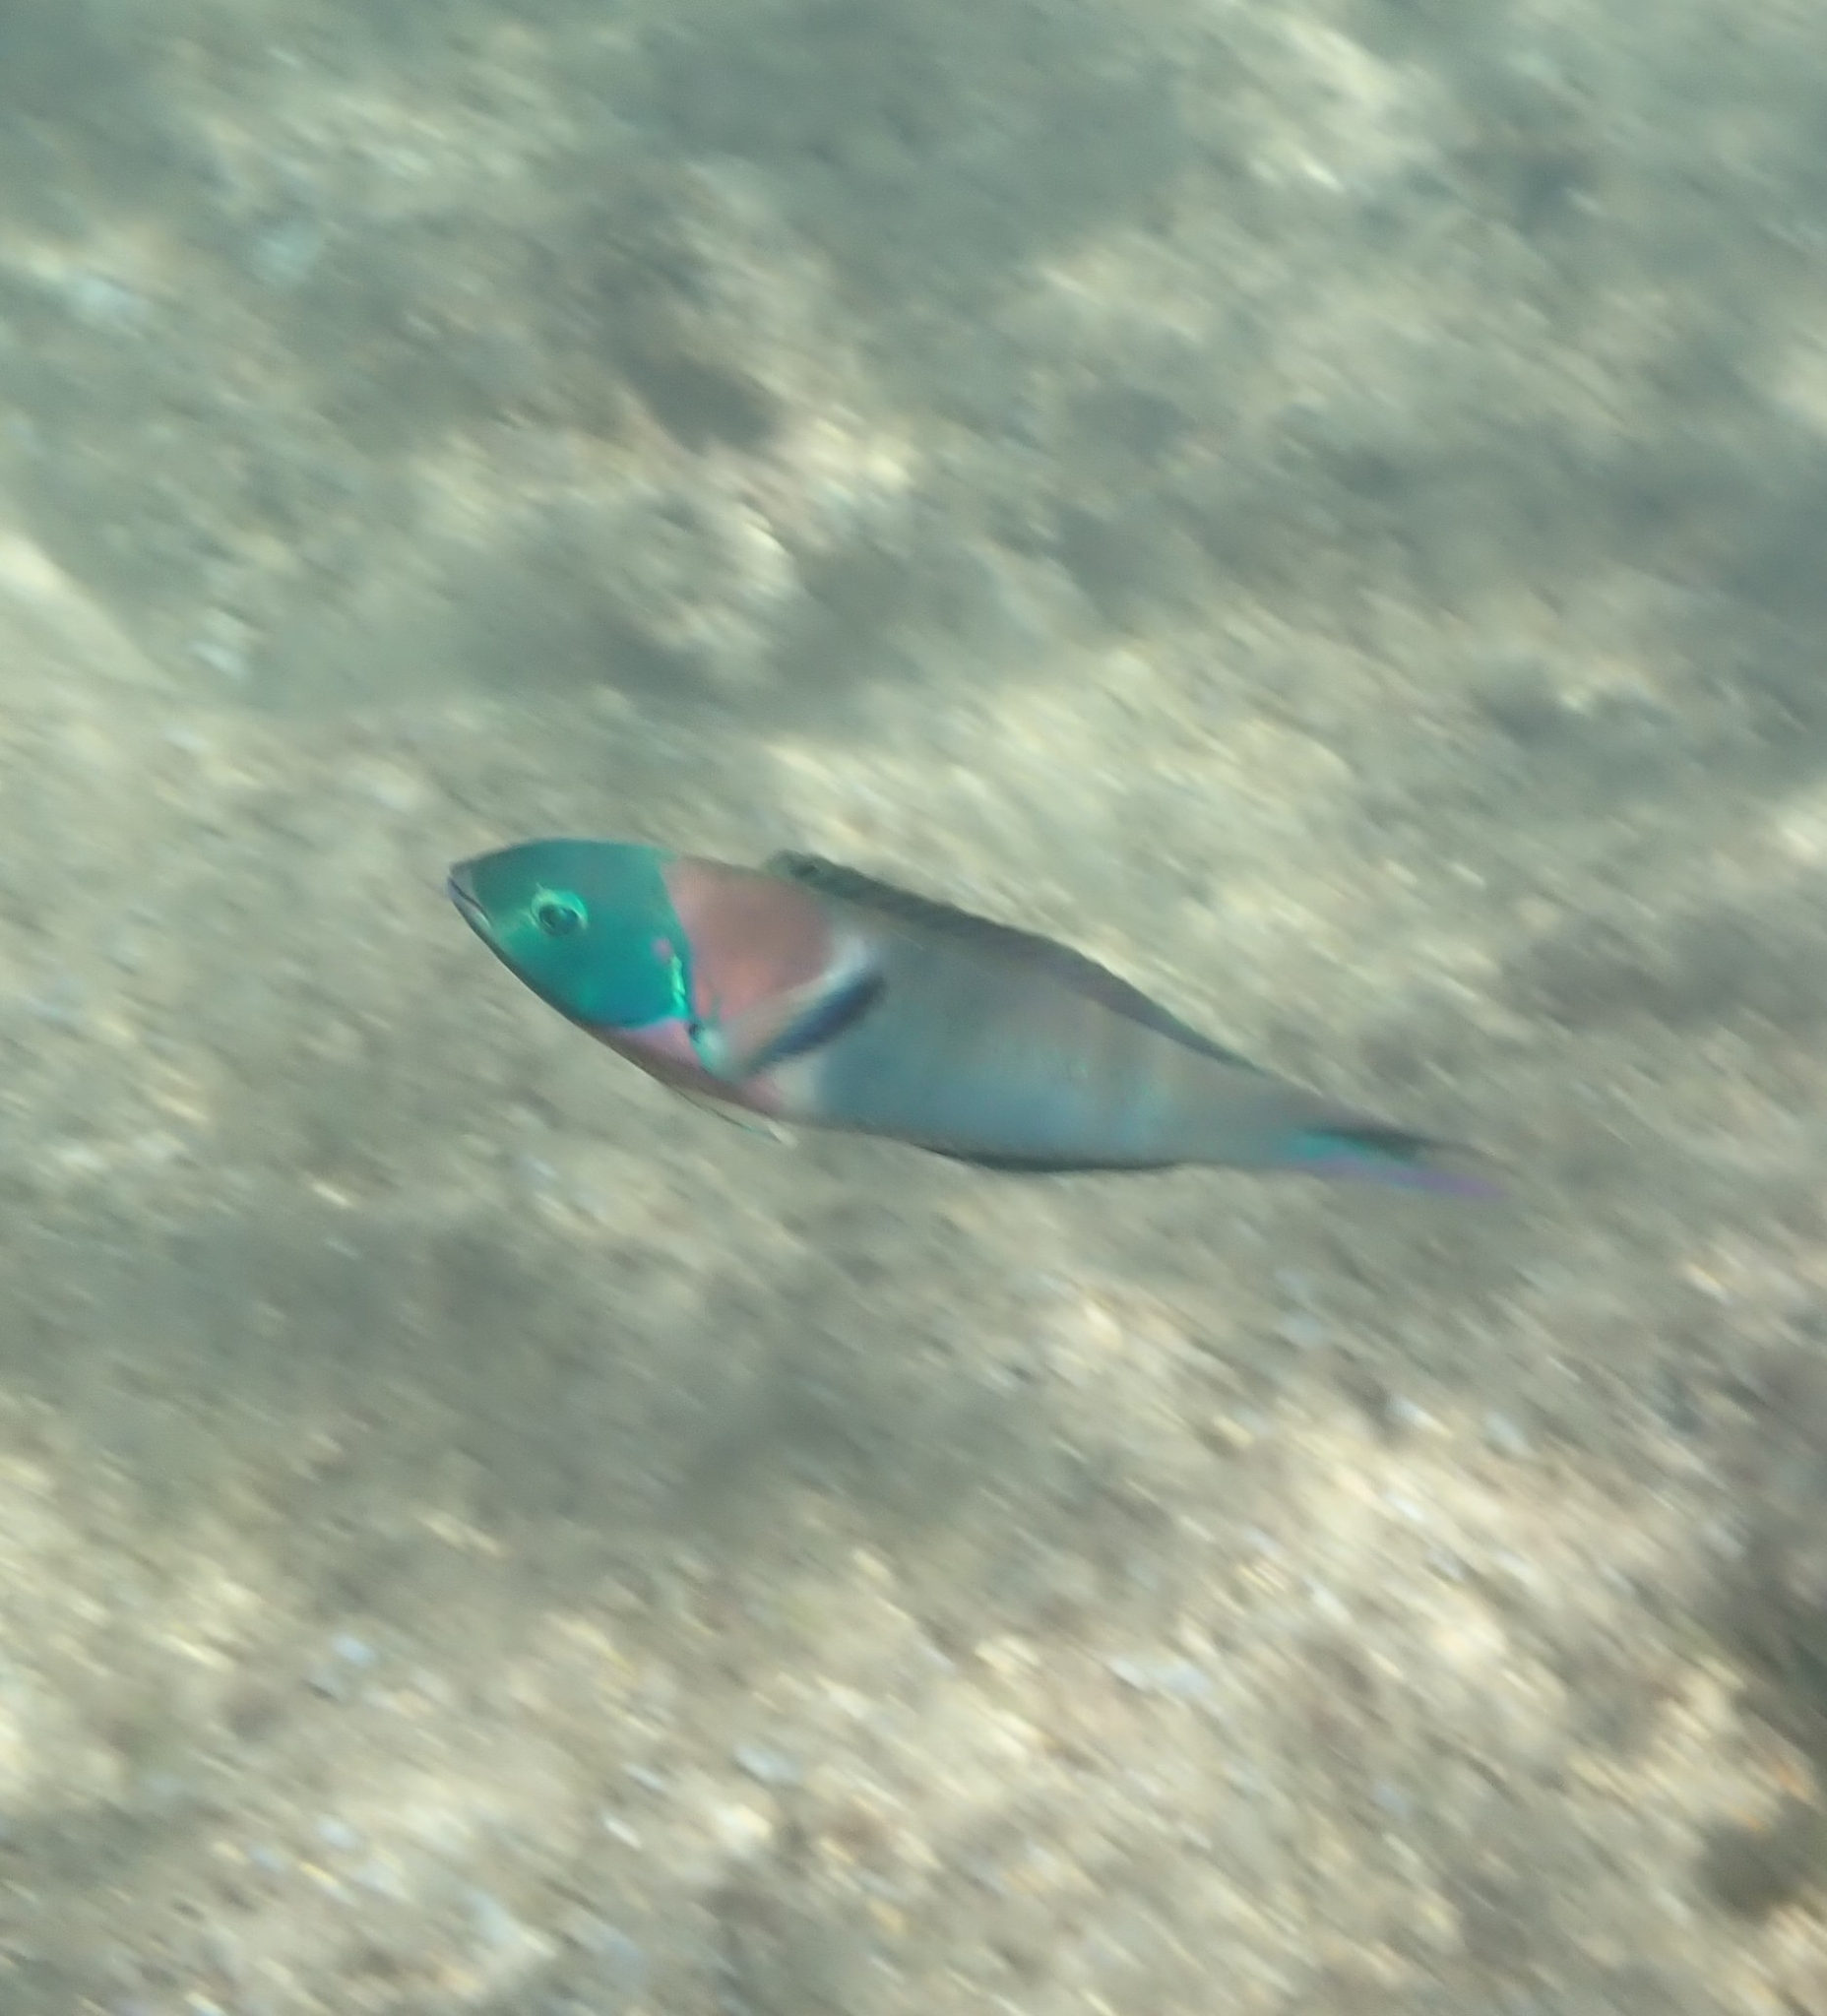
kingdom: Animalia
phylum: Chordata
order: Perciformes
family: Labridae
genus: Thalassoma
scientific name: Thalassoma duperrey
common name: Saddle wrasse
